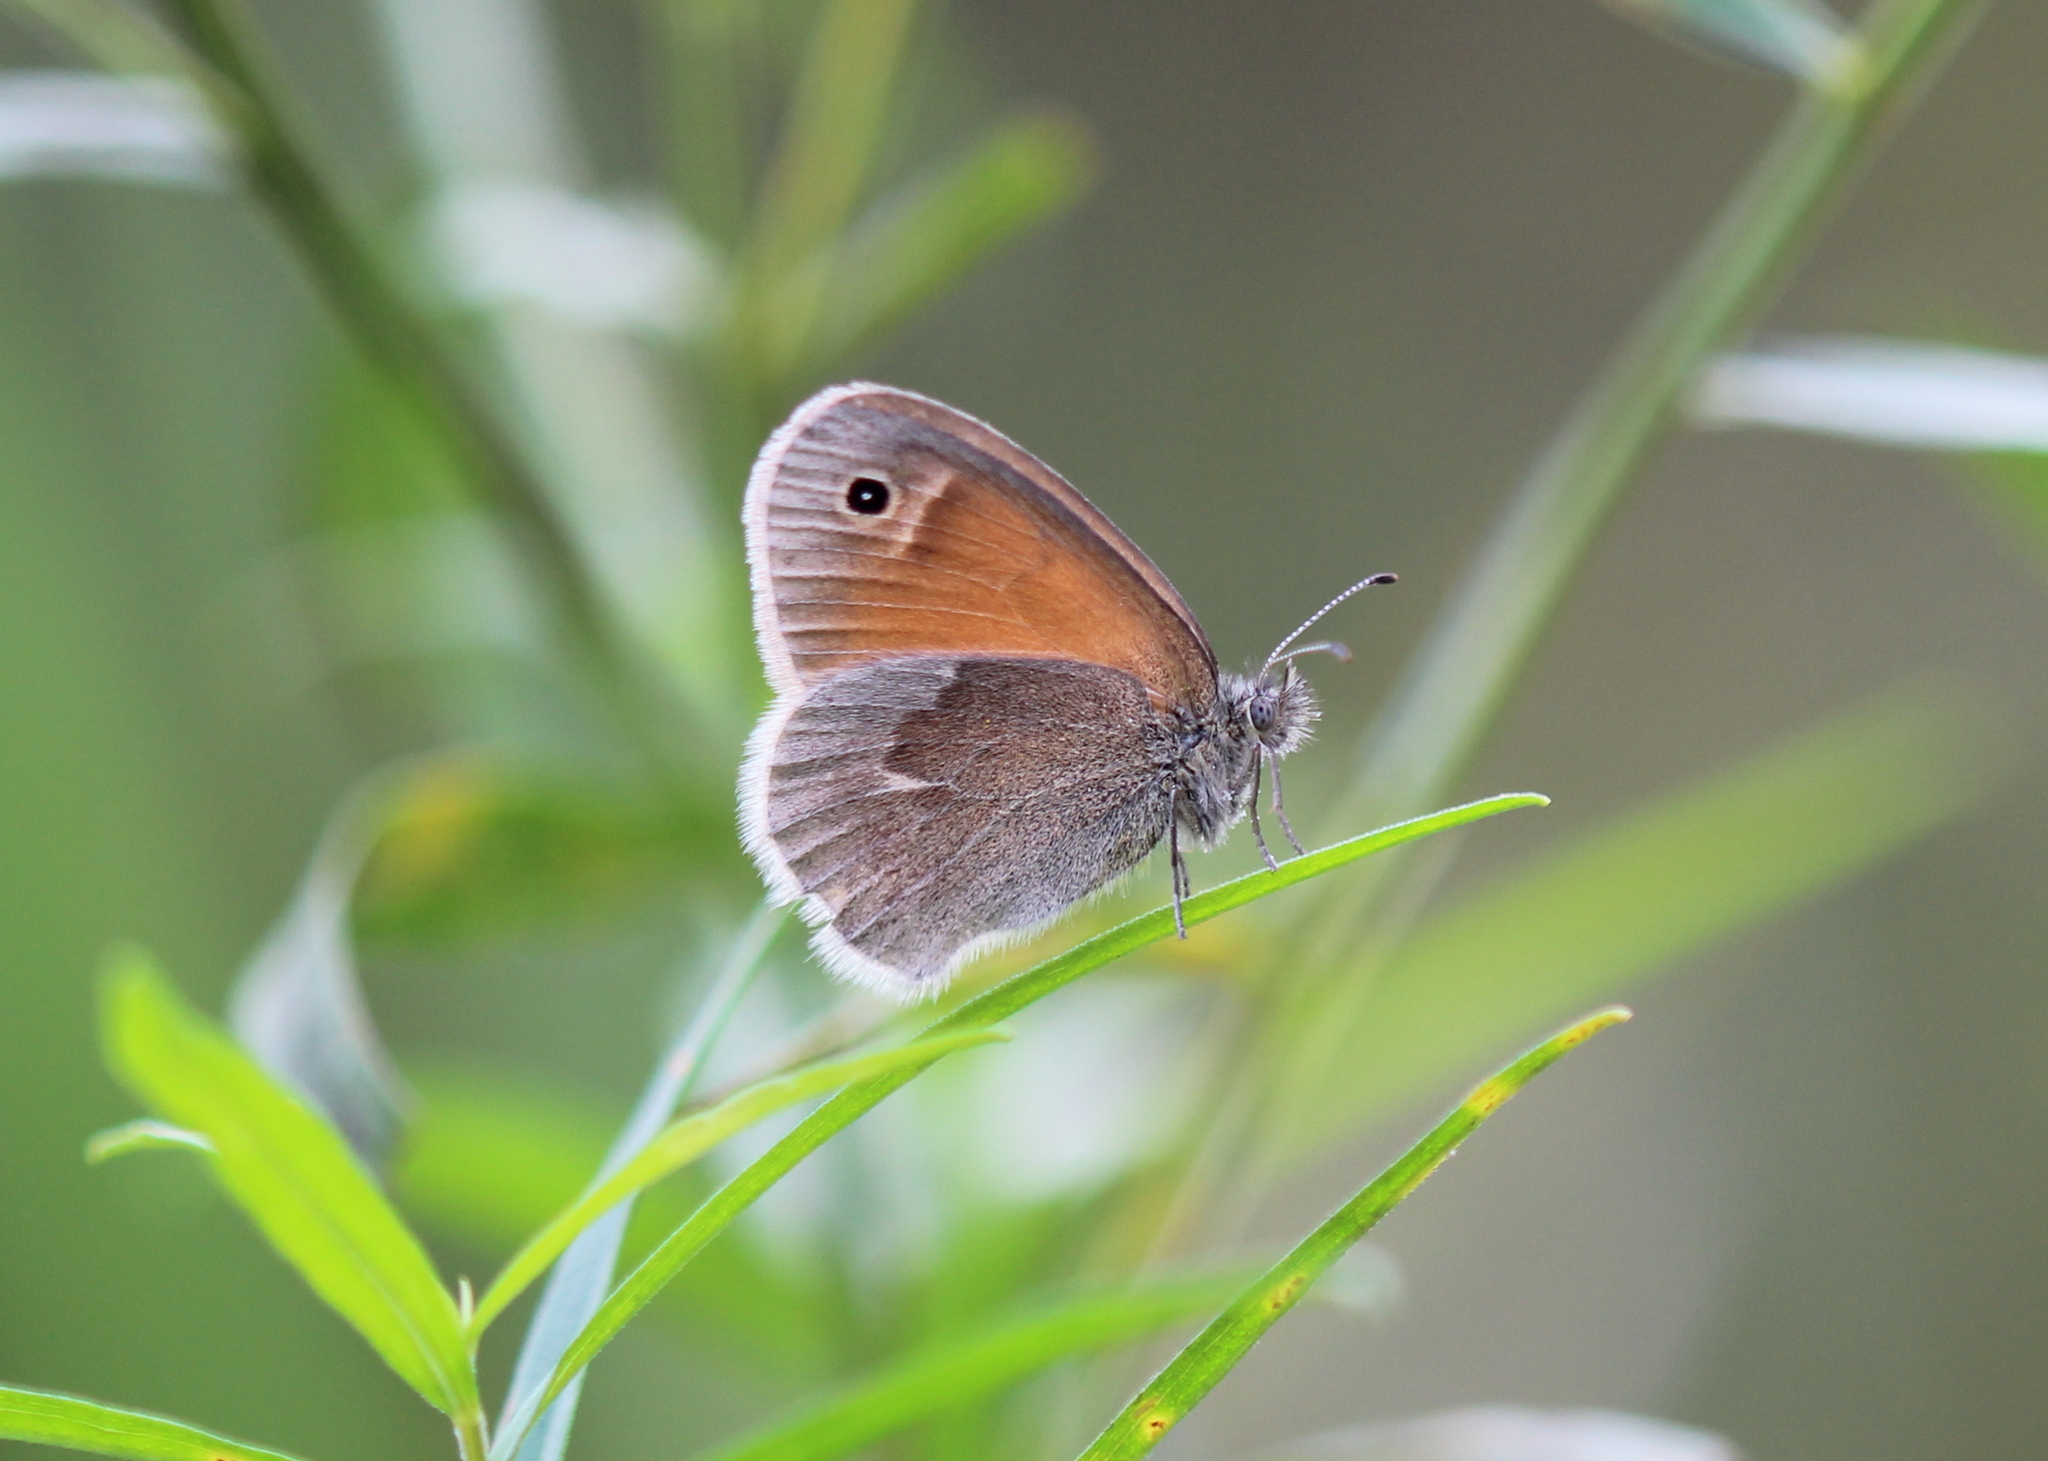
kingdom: Animalia
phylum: Arthropoda
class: Insecta
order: Lepidoptera
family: Nymphalidae
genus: Coenonympha
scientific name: Coenonympha california
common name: Common ringlet
